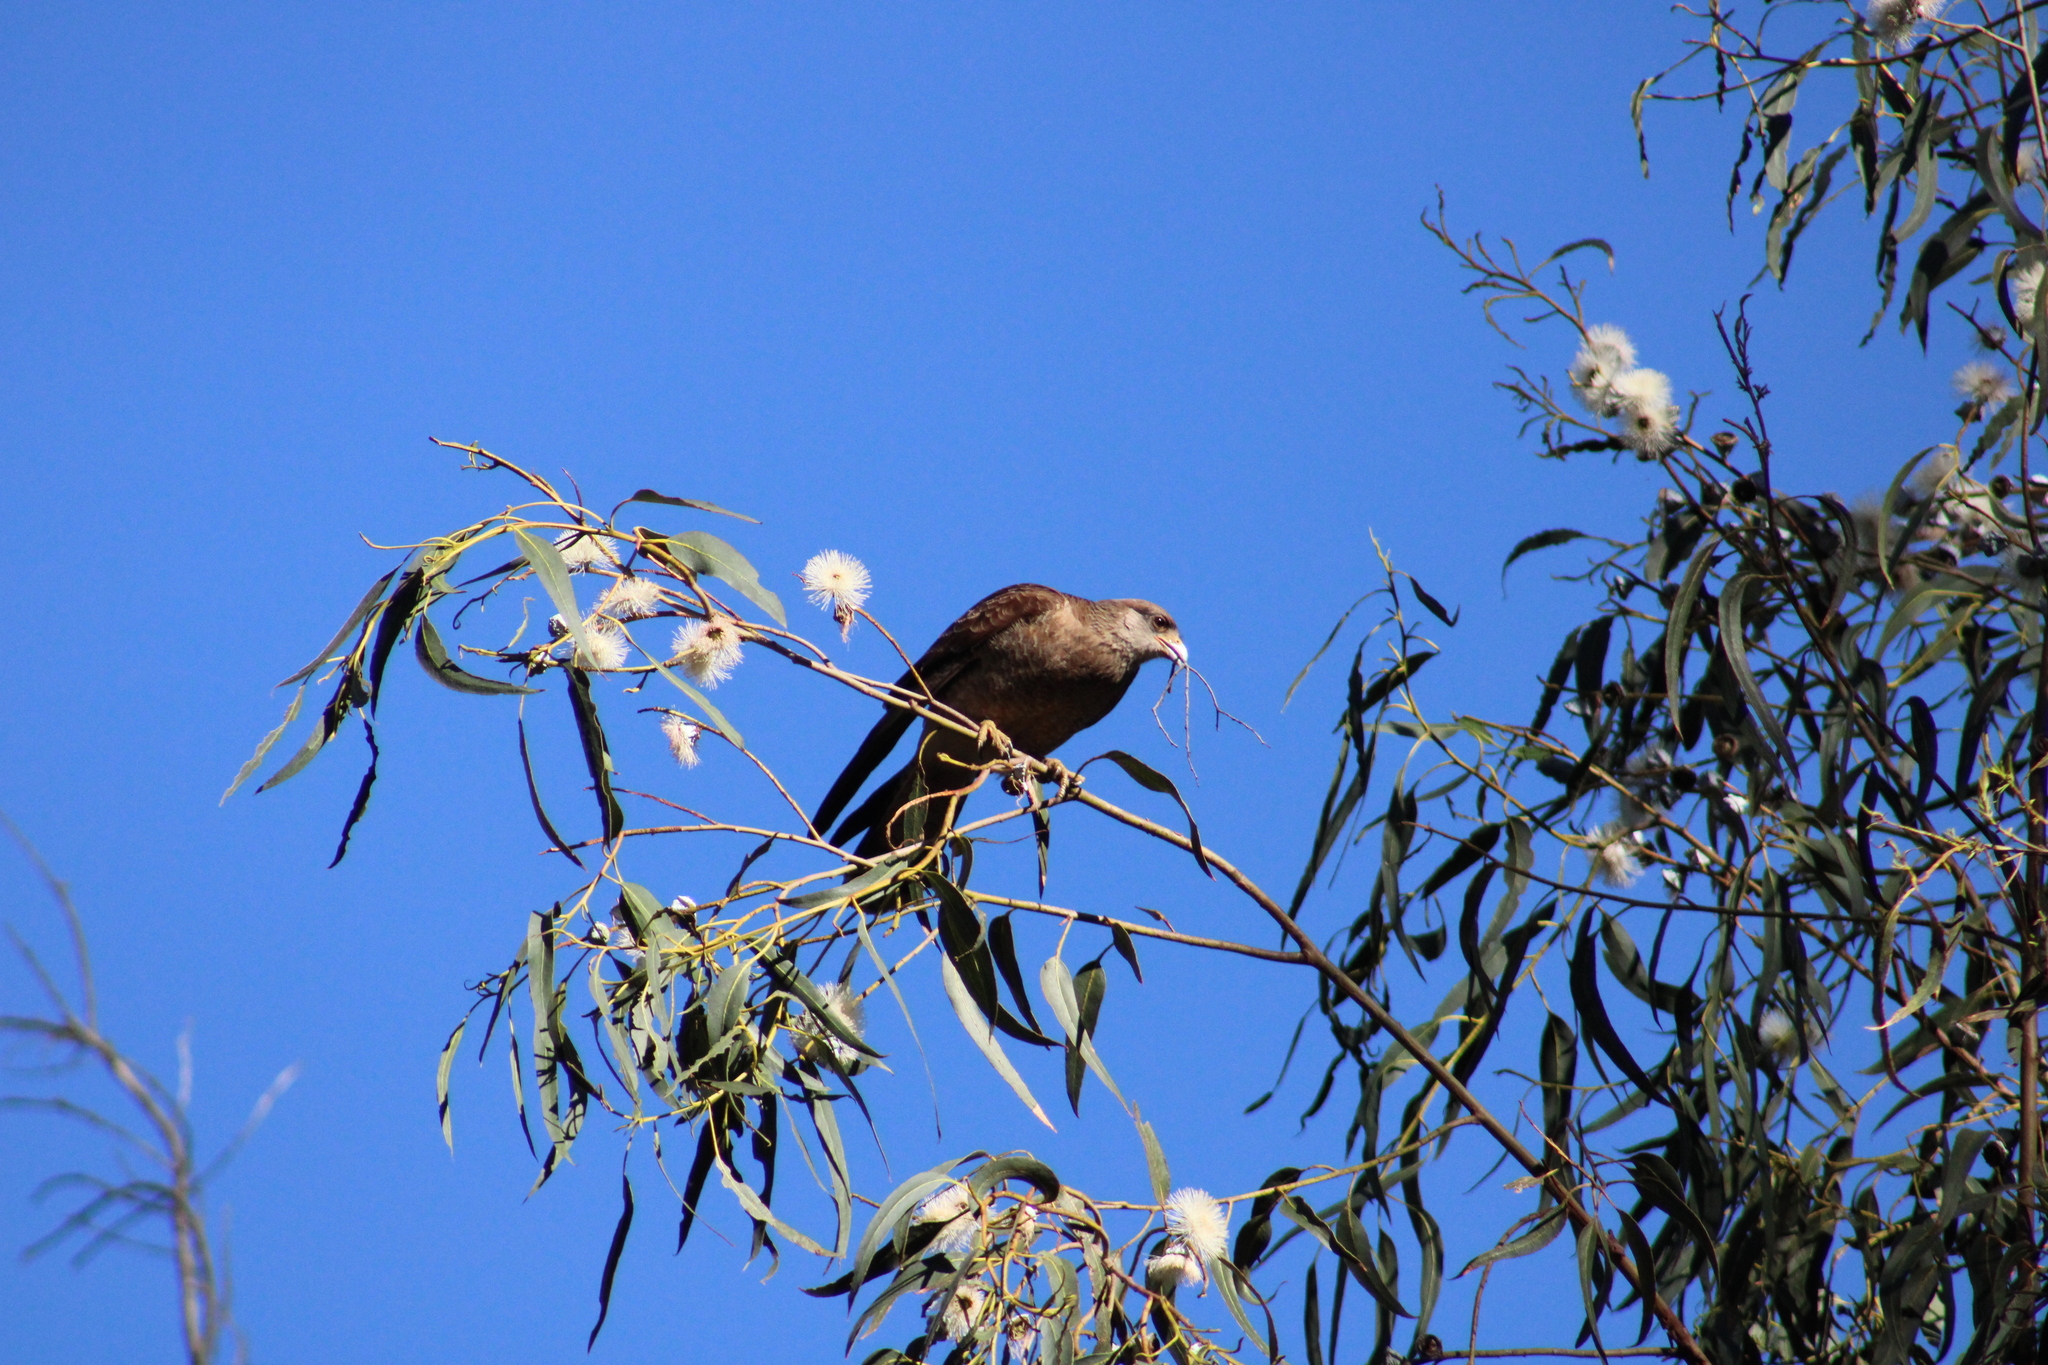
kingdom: Animalia
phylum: Chordata
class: Aves
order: Falconiformes
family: Falconidae
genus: Daptrius
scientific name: Daptrius
